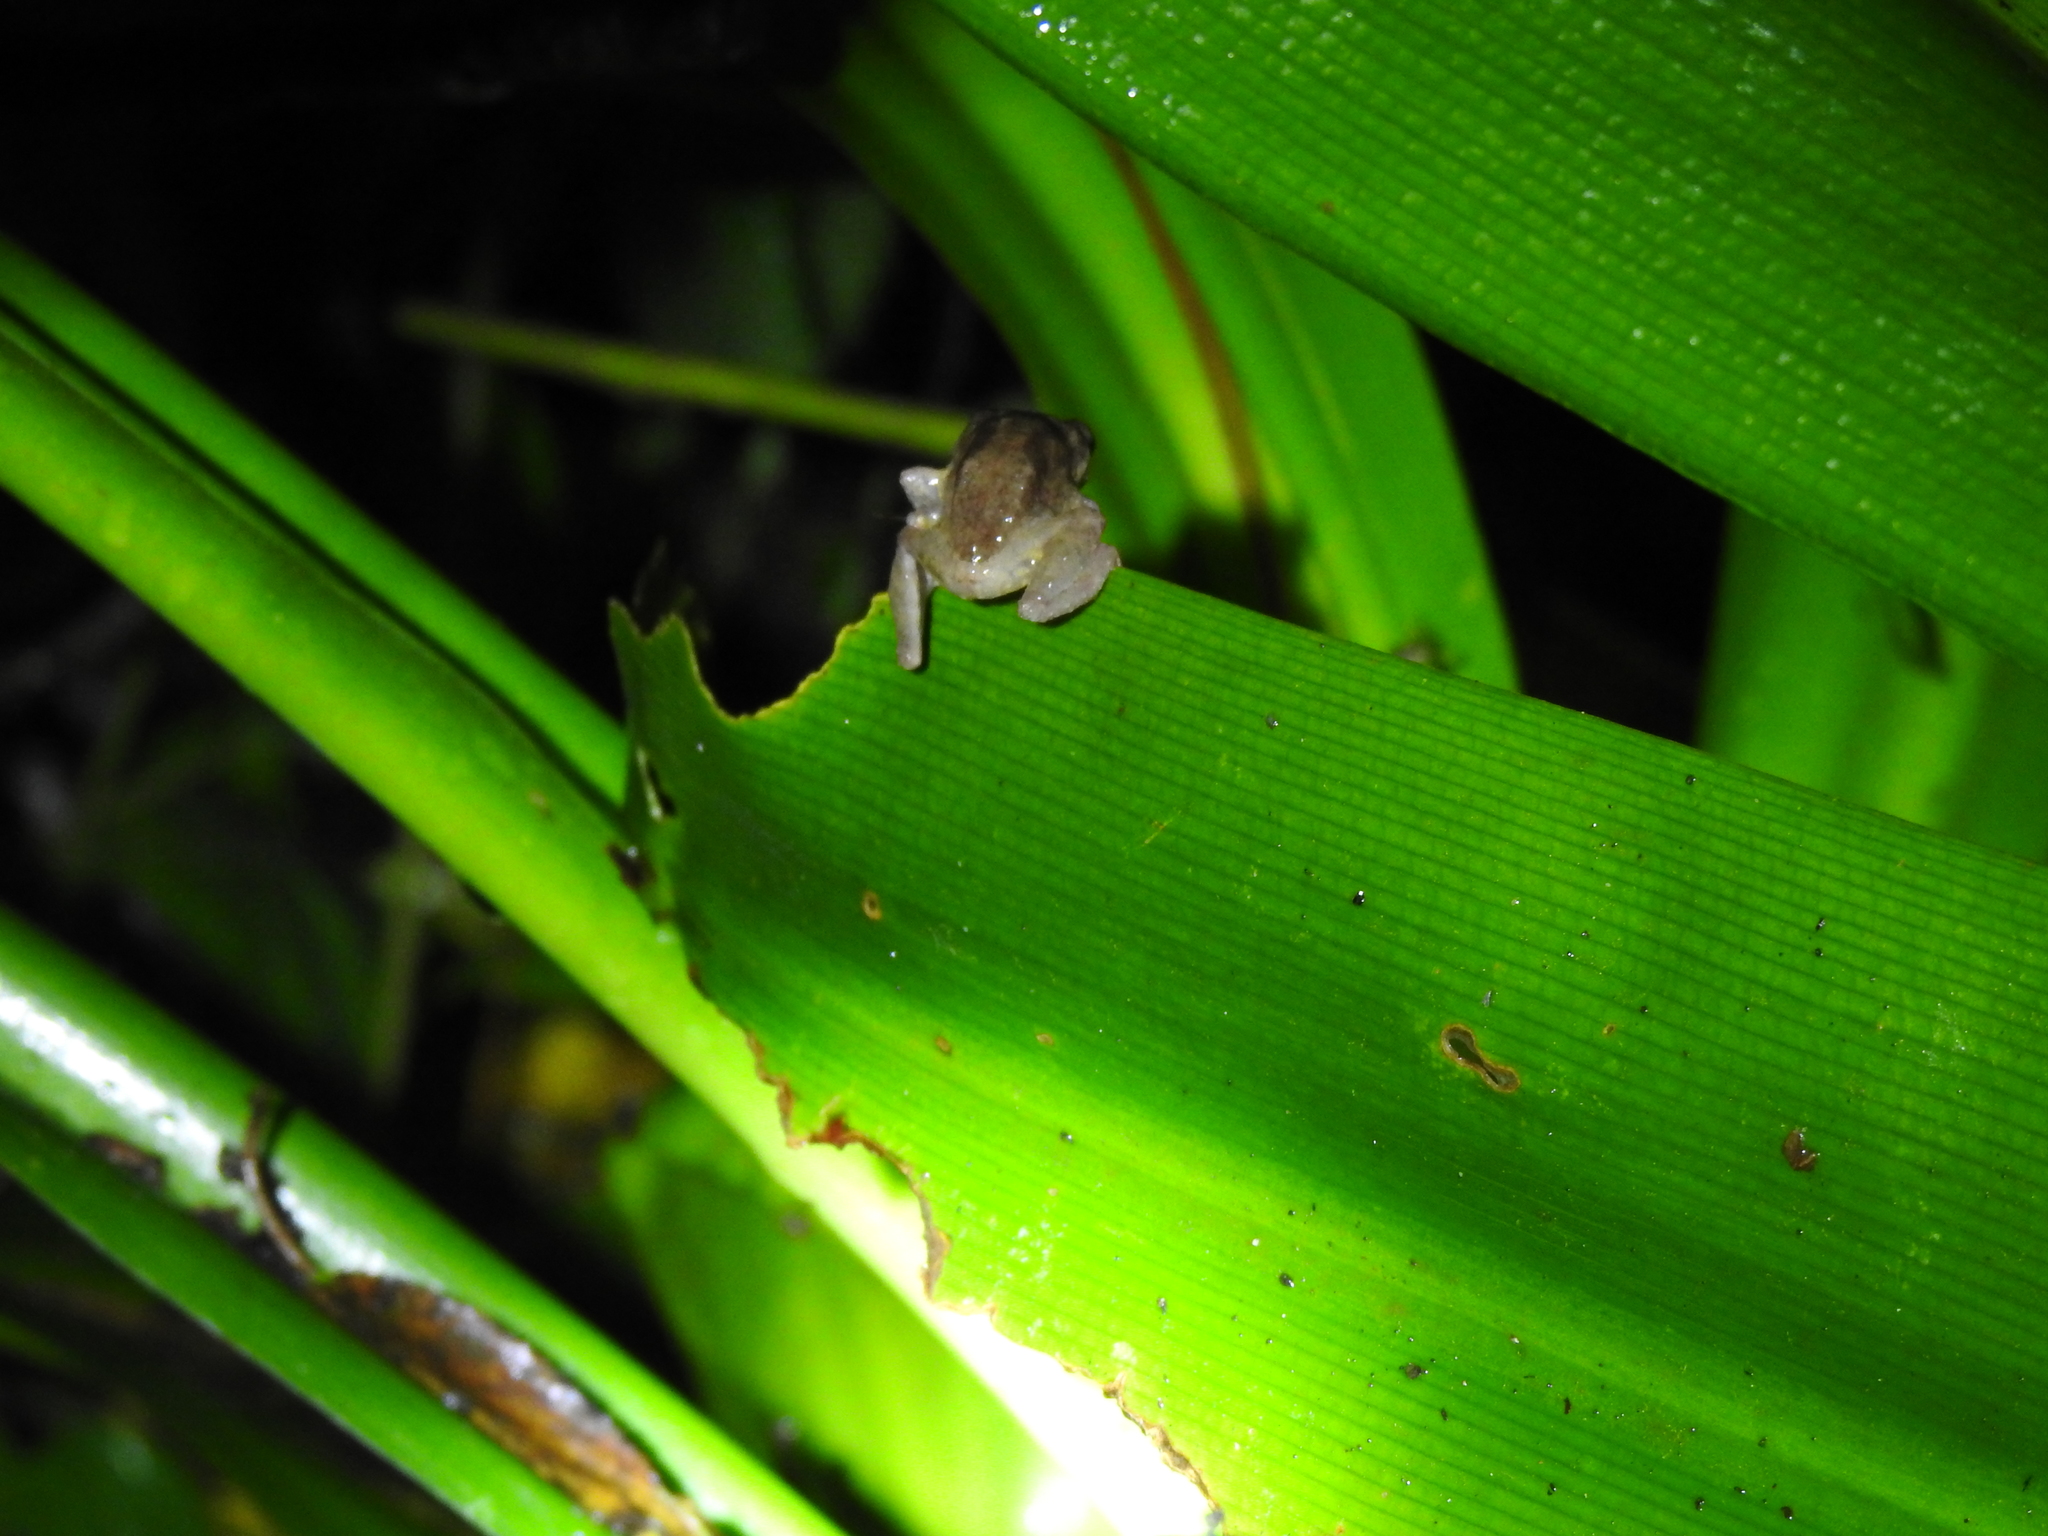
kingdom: Animalia
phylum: Chordata
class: Amphibia
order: Anura
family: Rhacophoridae
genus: Raorchestes
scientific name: Raorchestes dubois
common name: Koadaikanal bush frog
